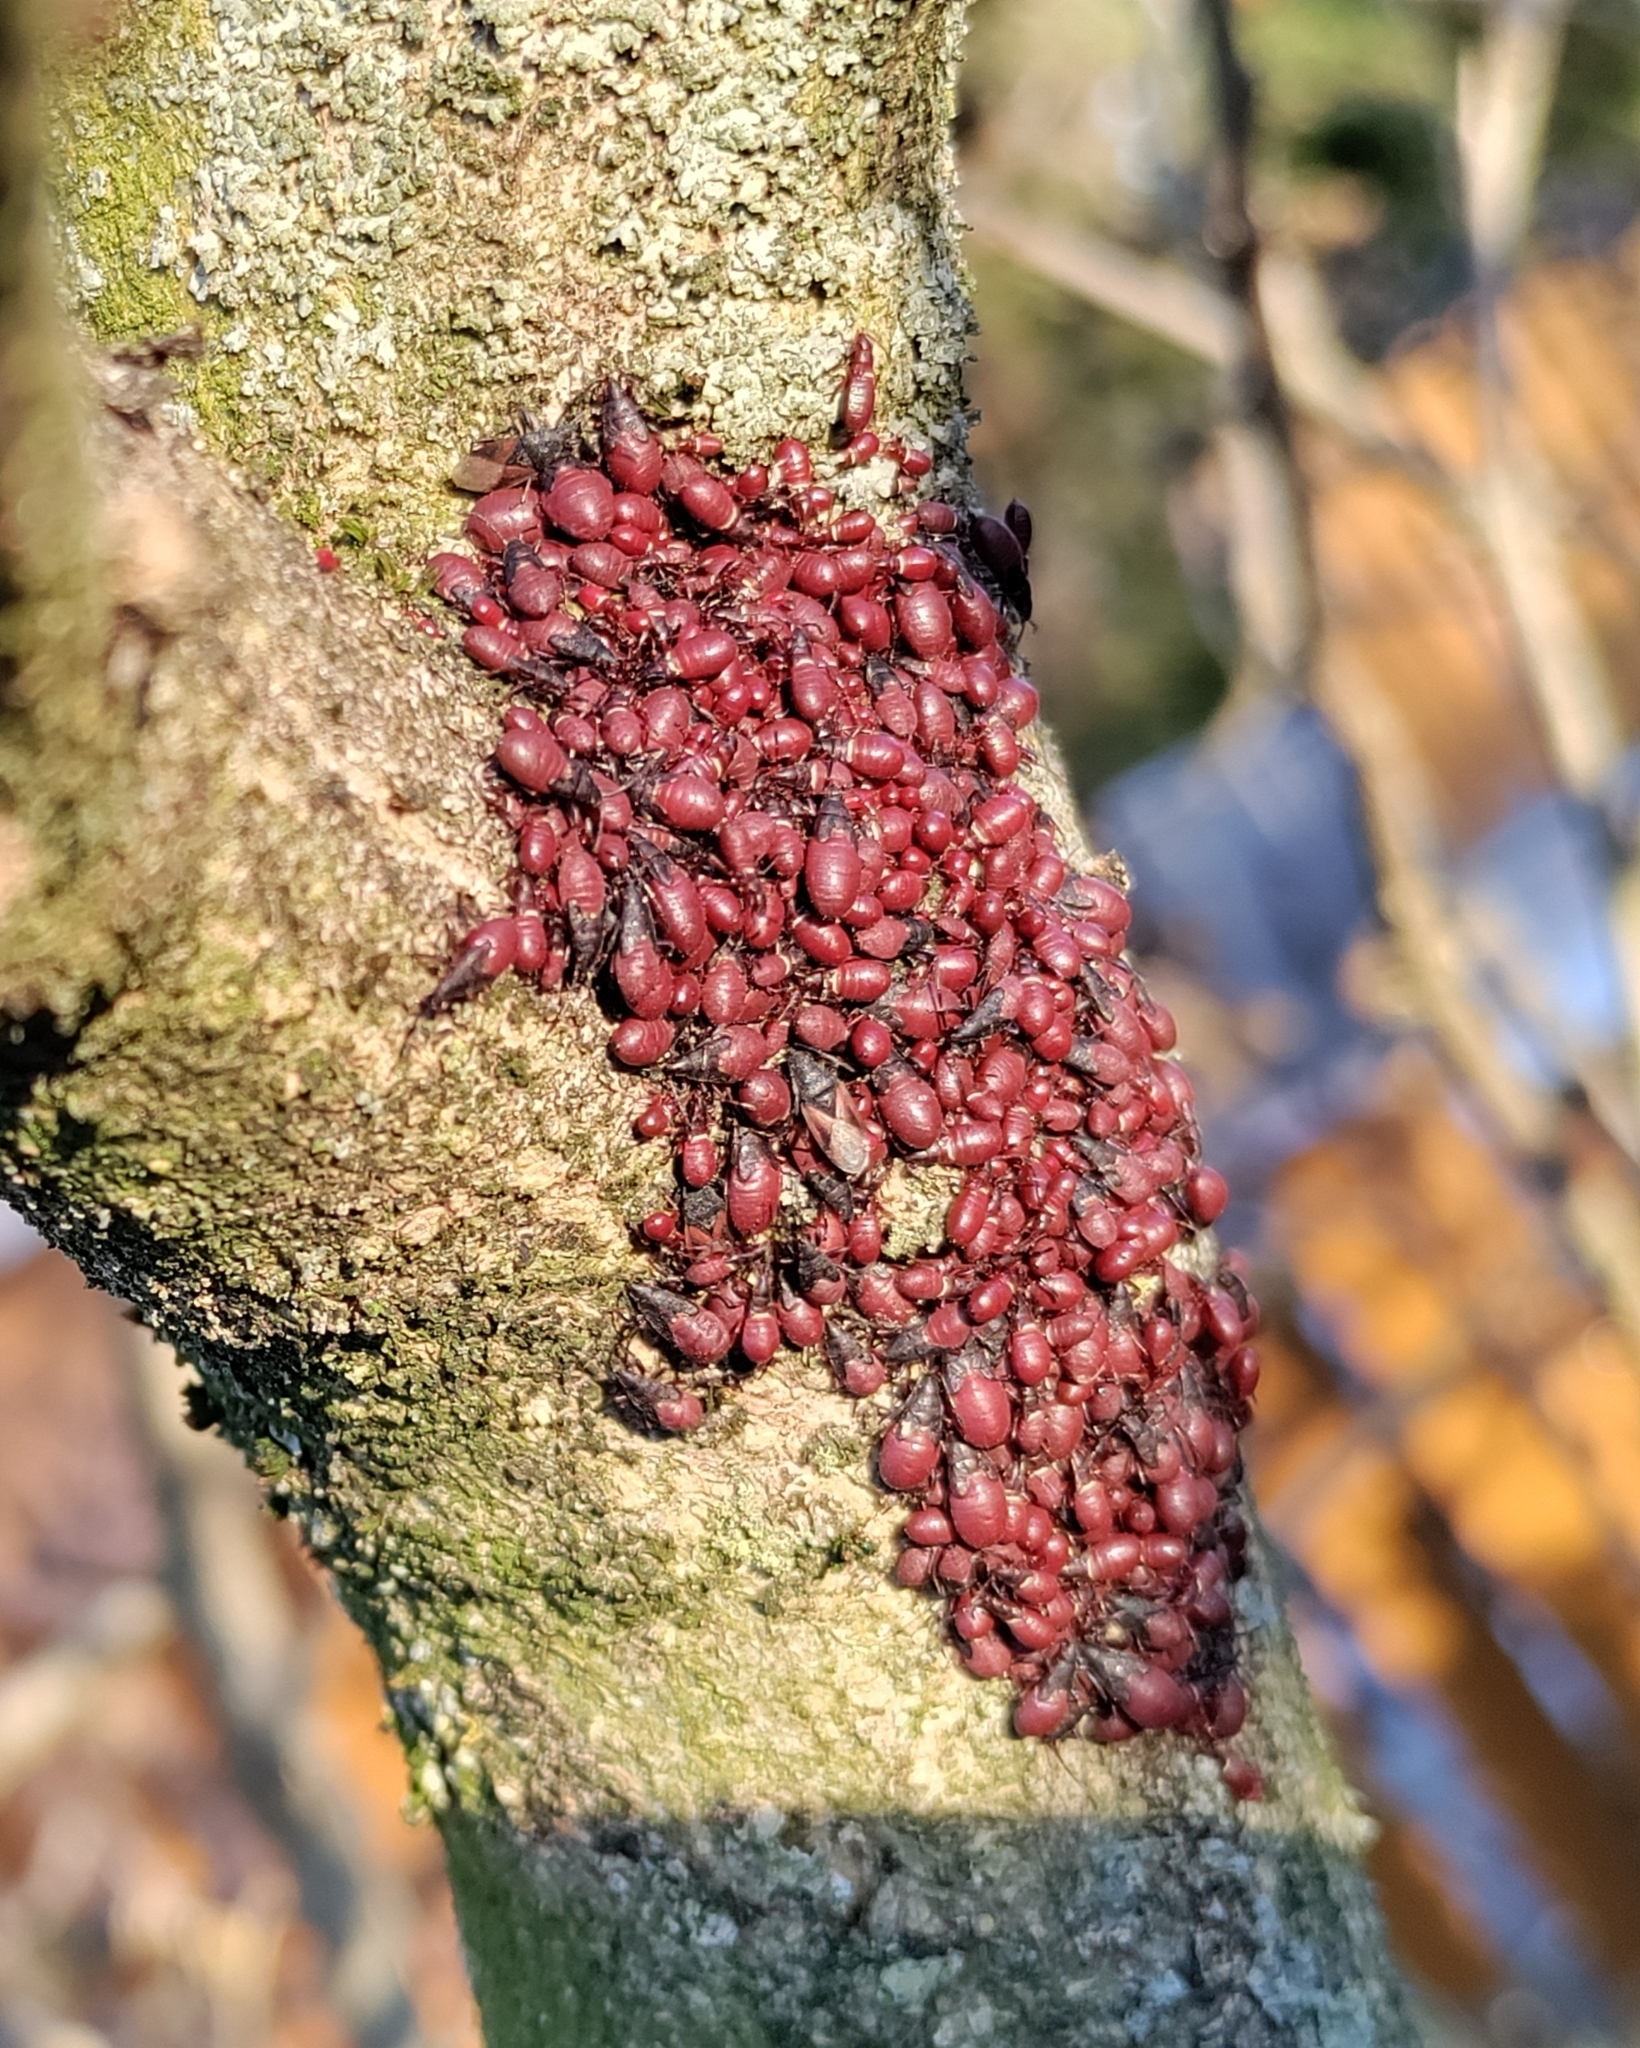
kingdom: Animalia
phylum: Arthropoda
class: Insecta
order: Hemiptera
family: Oxycarenidae
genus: Oxycarenus
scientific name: Oxycarenus lavaterae
